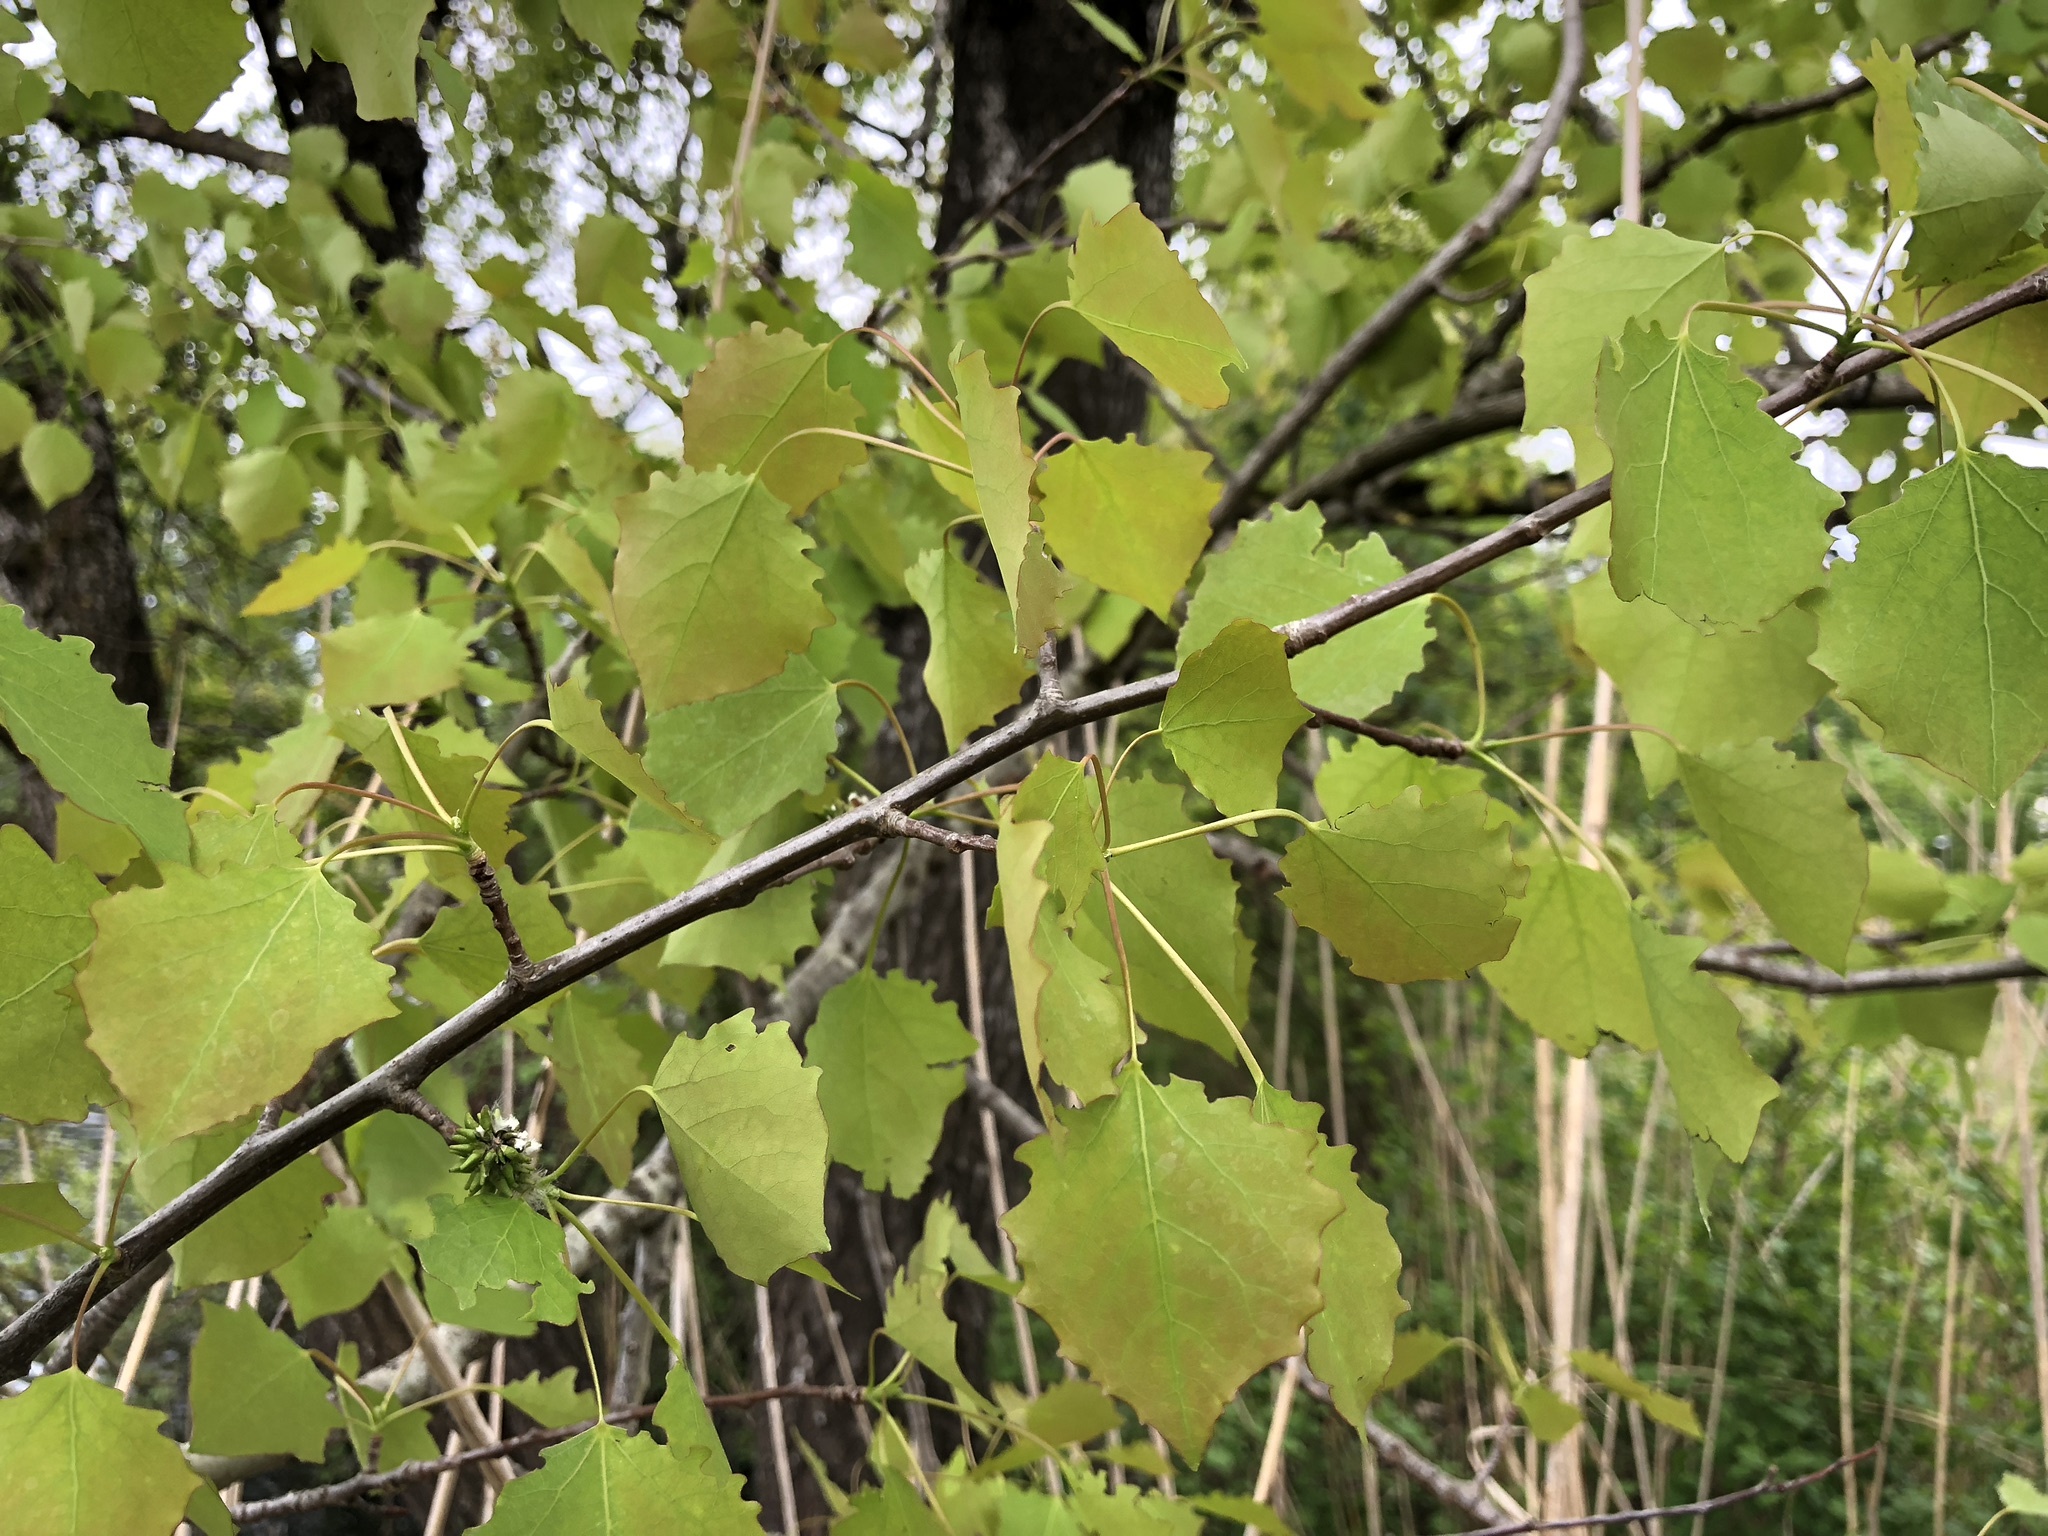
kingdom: Plantae
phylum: Tracheophyta
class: Magnoliopsida
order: Malpighiales
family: Salicaceae
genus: Populus
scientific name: Populus tremula
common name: European aspen
